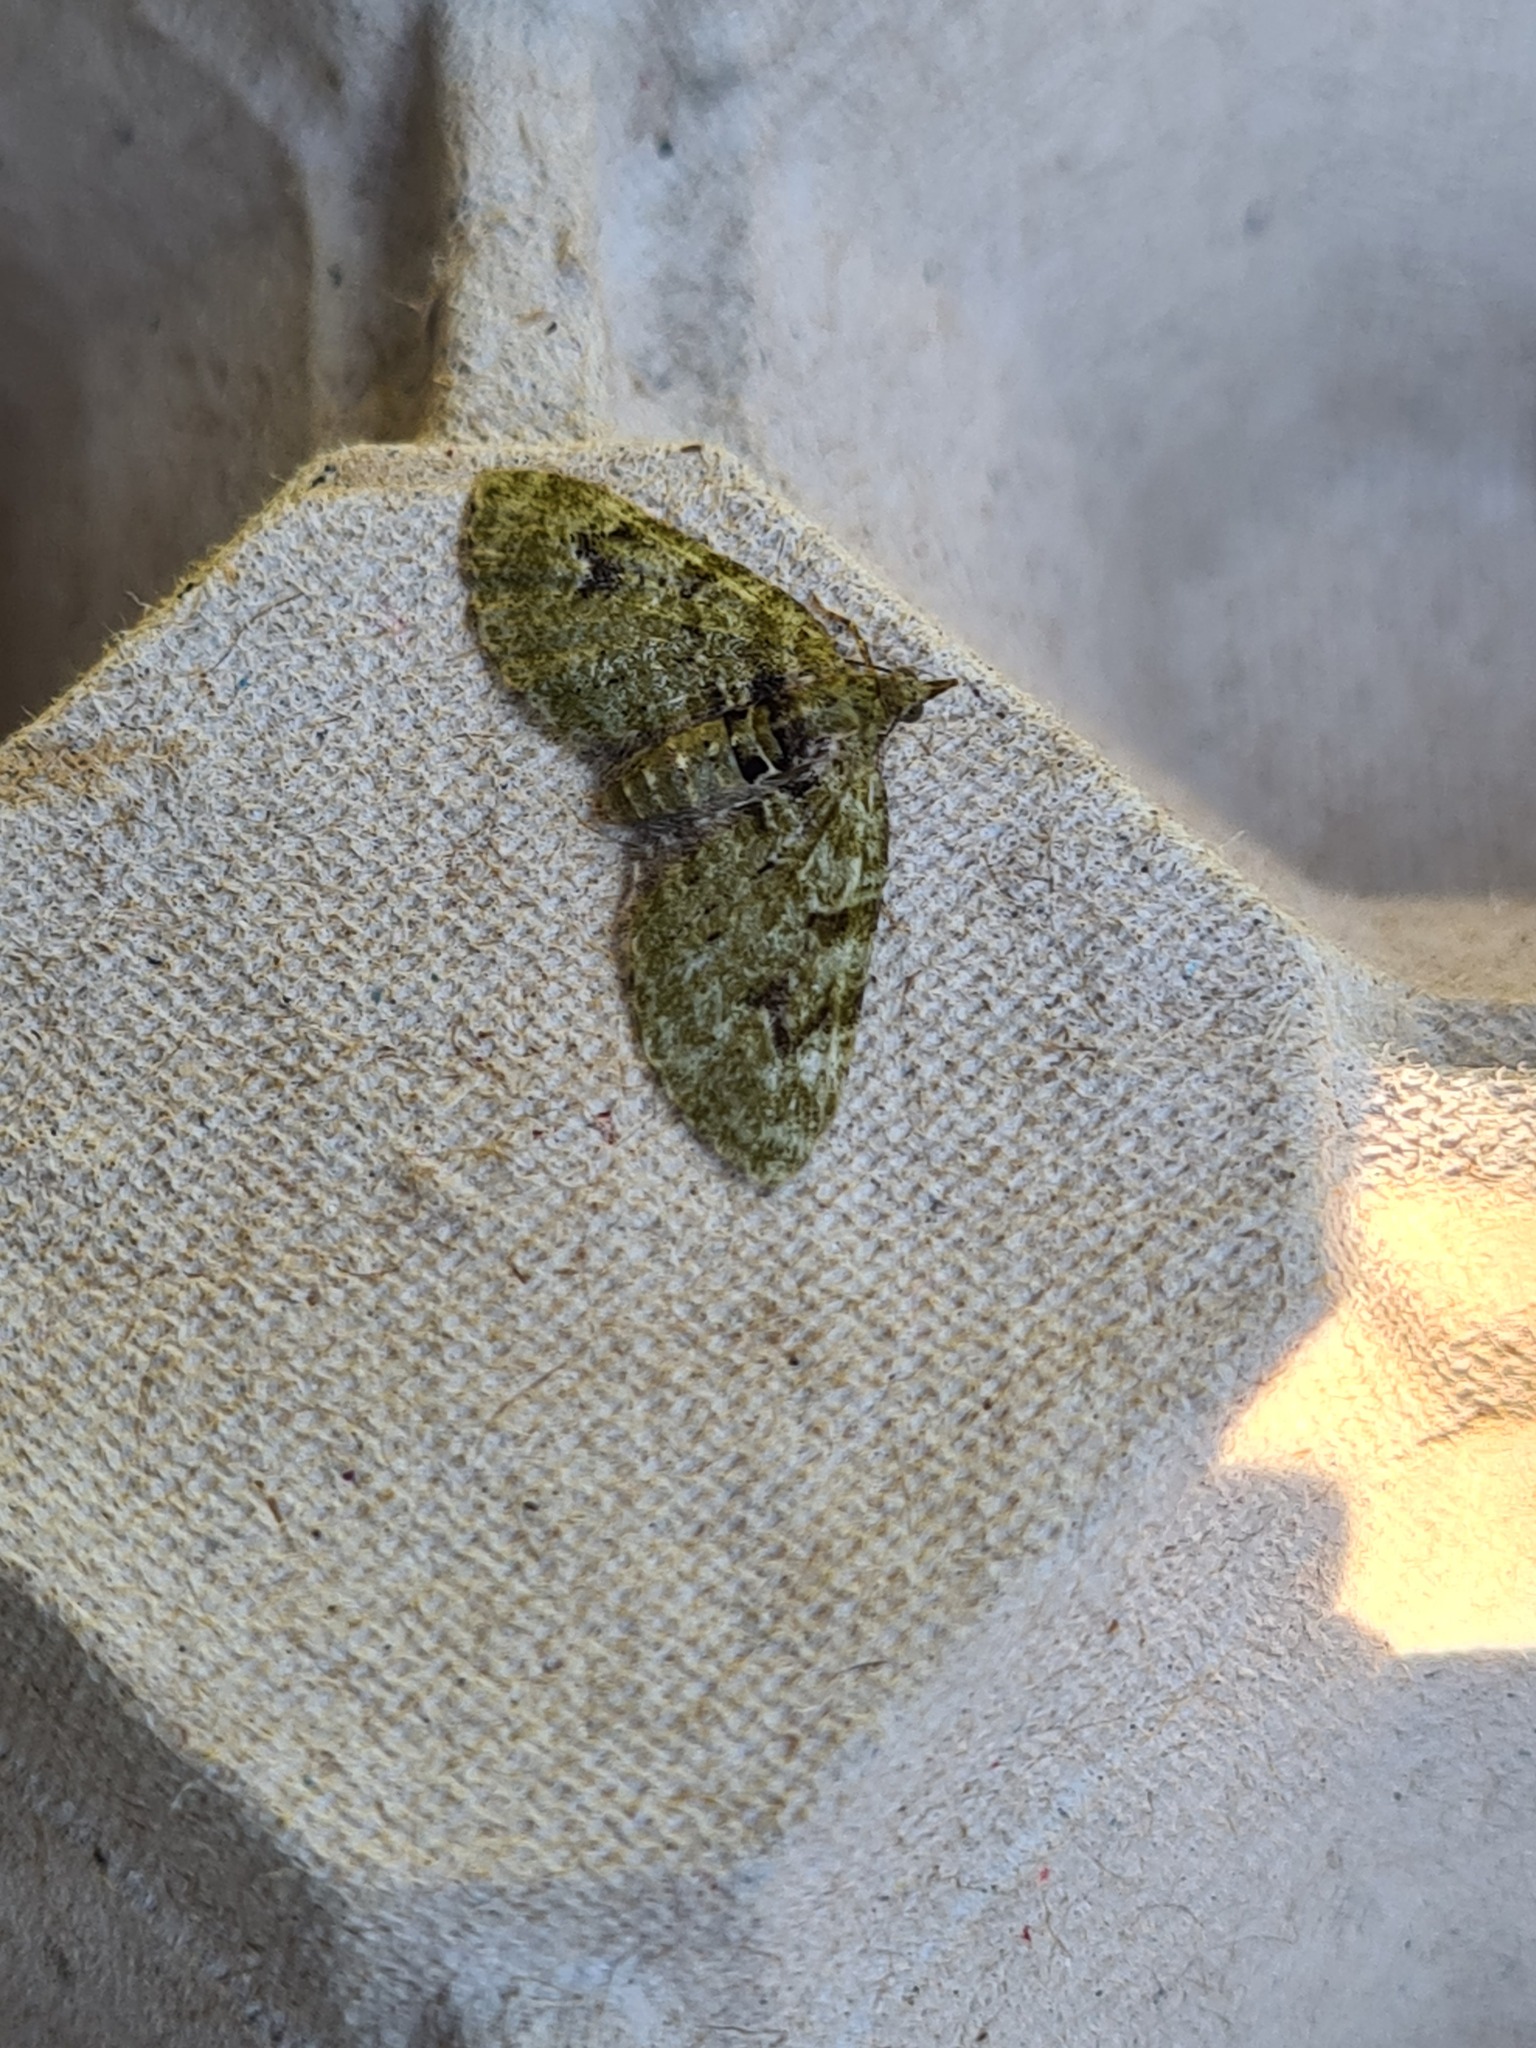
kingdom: Animalia
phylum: Arthropoda
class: Insecta
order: Lepidoptera
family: Geometridae
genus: Chloroclystis
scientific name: Chloroclystis v-ata
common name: V-pug
